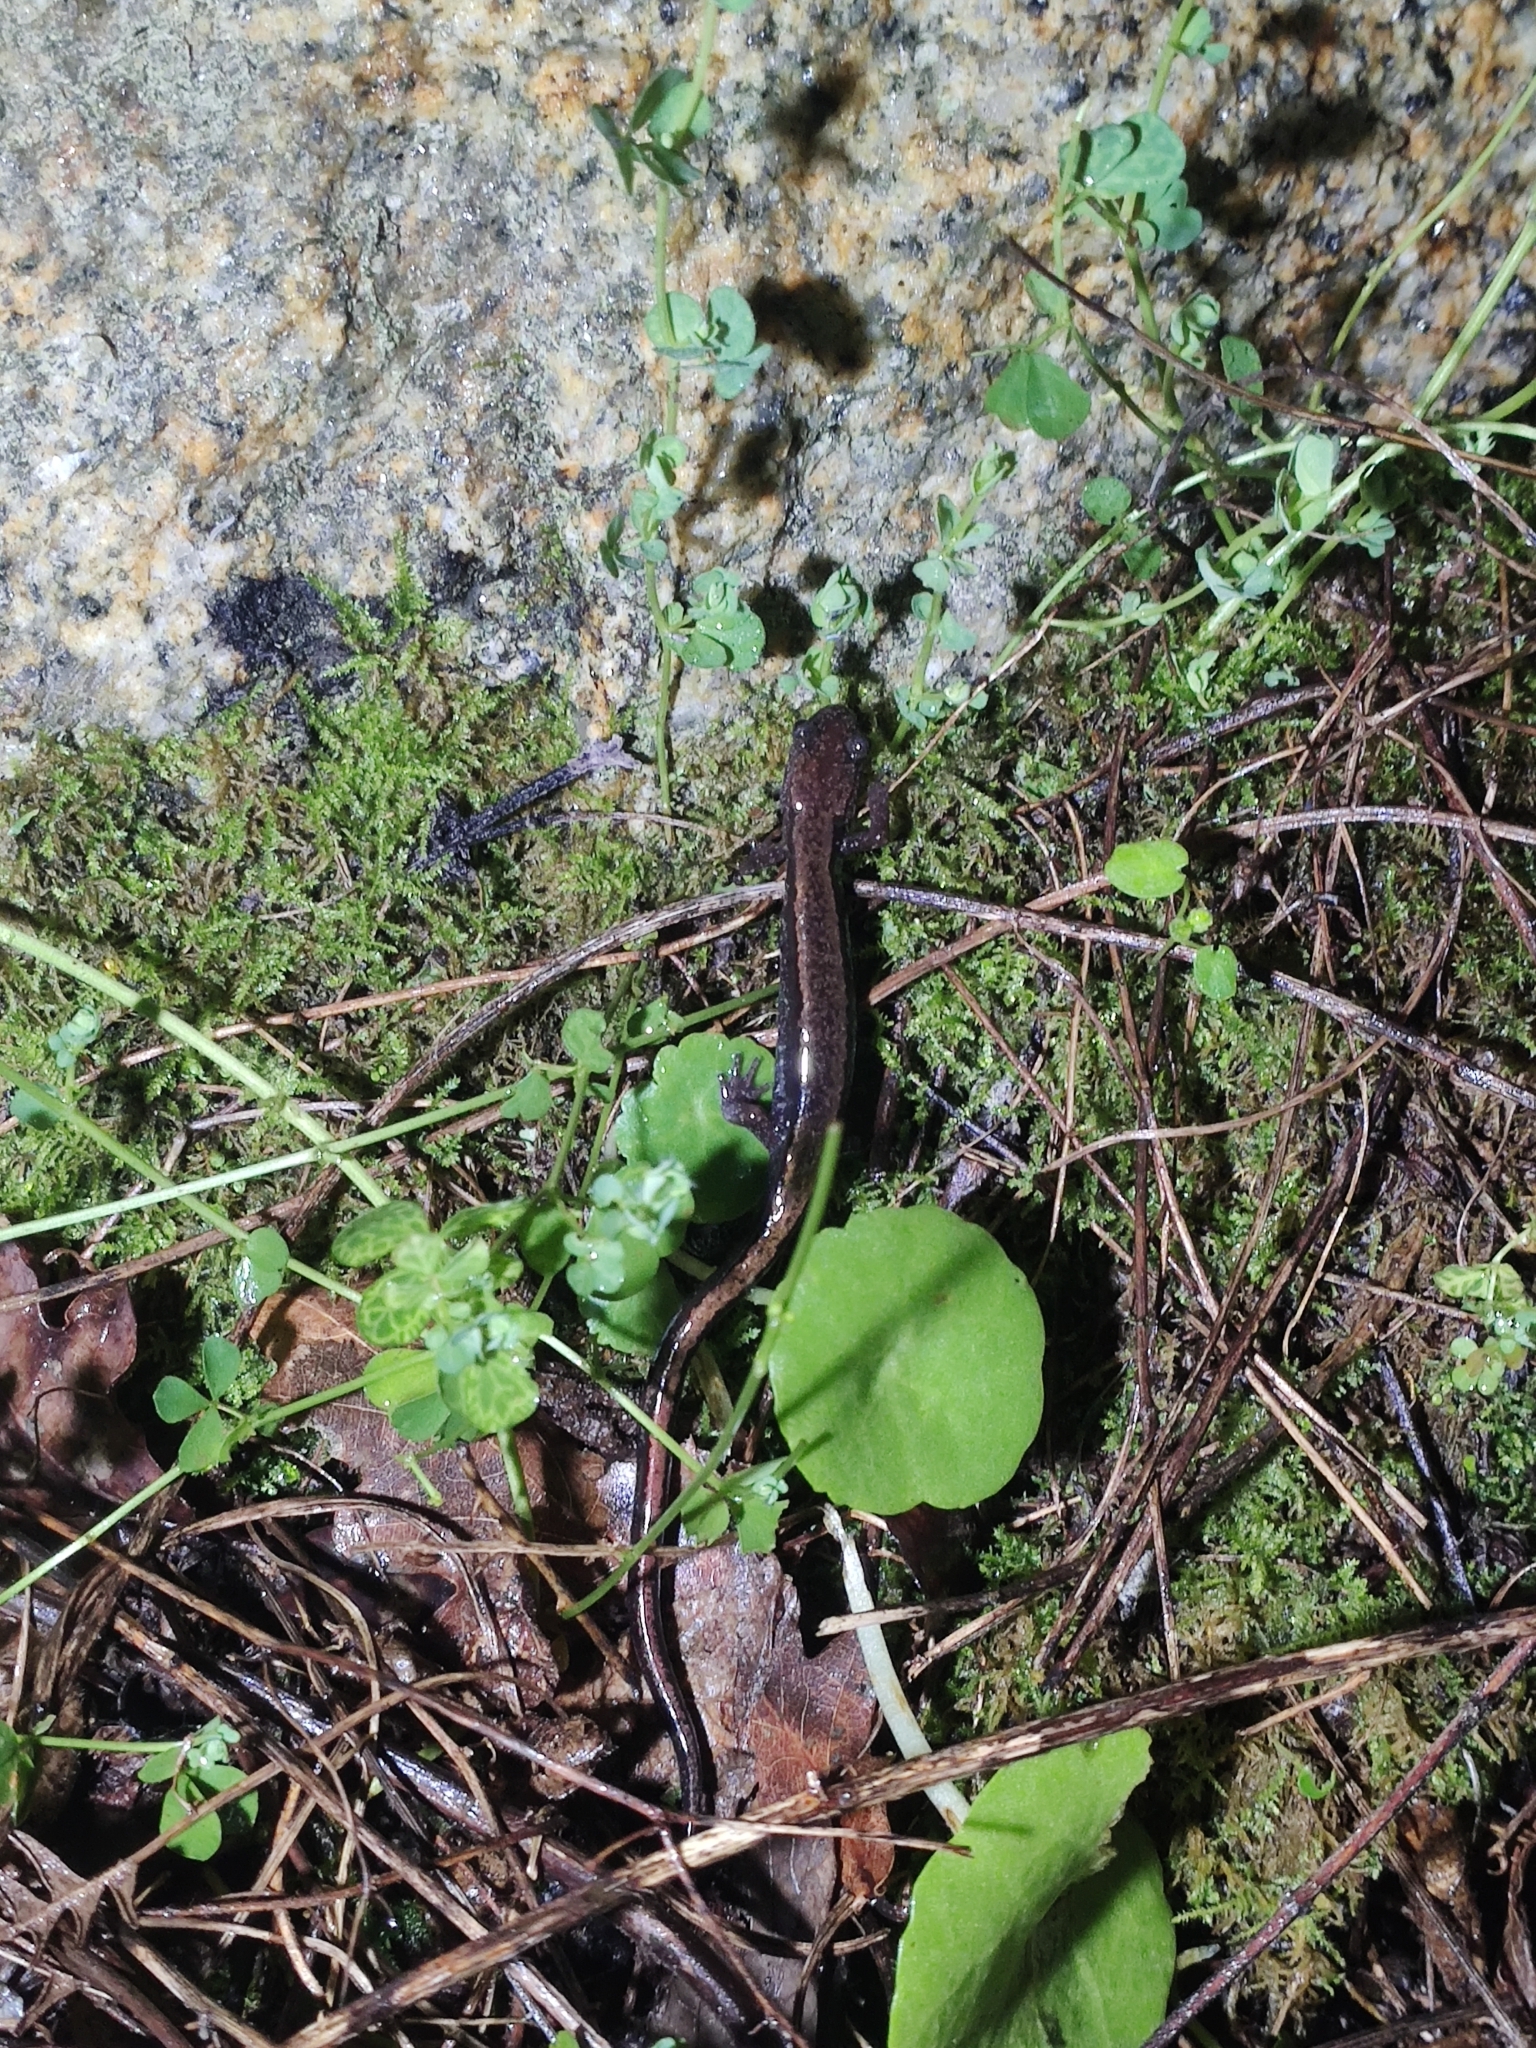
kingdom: Animalia
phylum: Chordata
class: Amphibia
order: Caudata
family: Salamandridae
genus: Chioglossa
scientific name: Chioglossa lusitanica
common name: Gold-striped salamander
